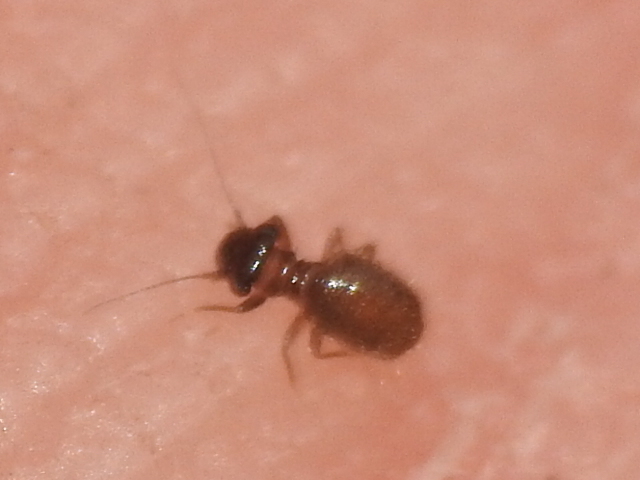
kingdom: Animalia
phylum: Arthropoda
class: Insecta
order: Psocodea
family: Trogiidae
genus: Lepinotus
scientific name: Lepinotus reticulatus
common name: Book lice
